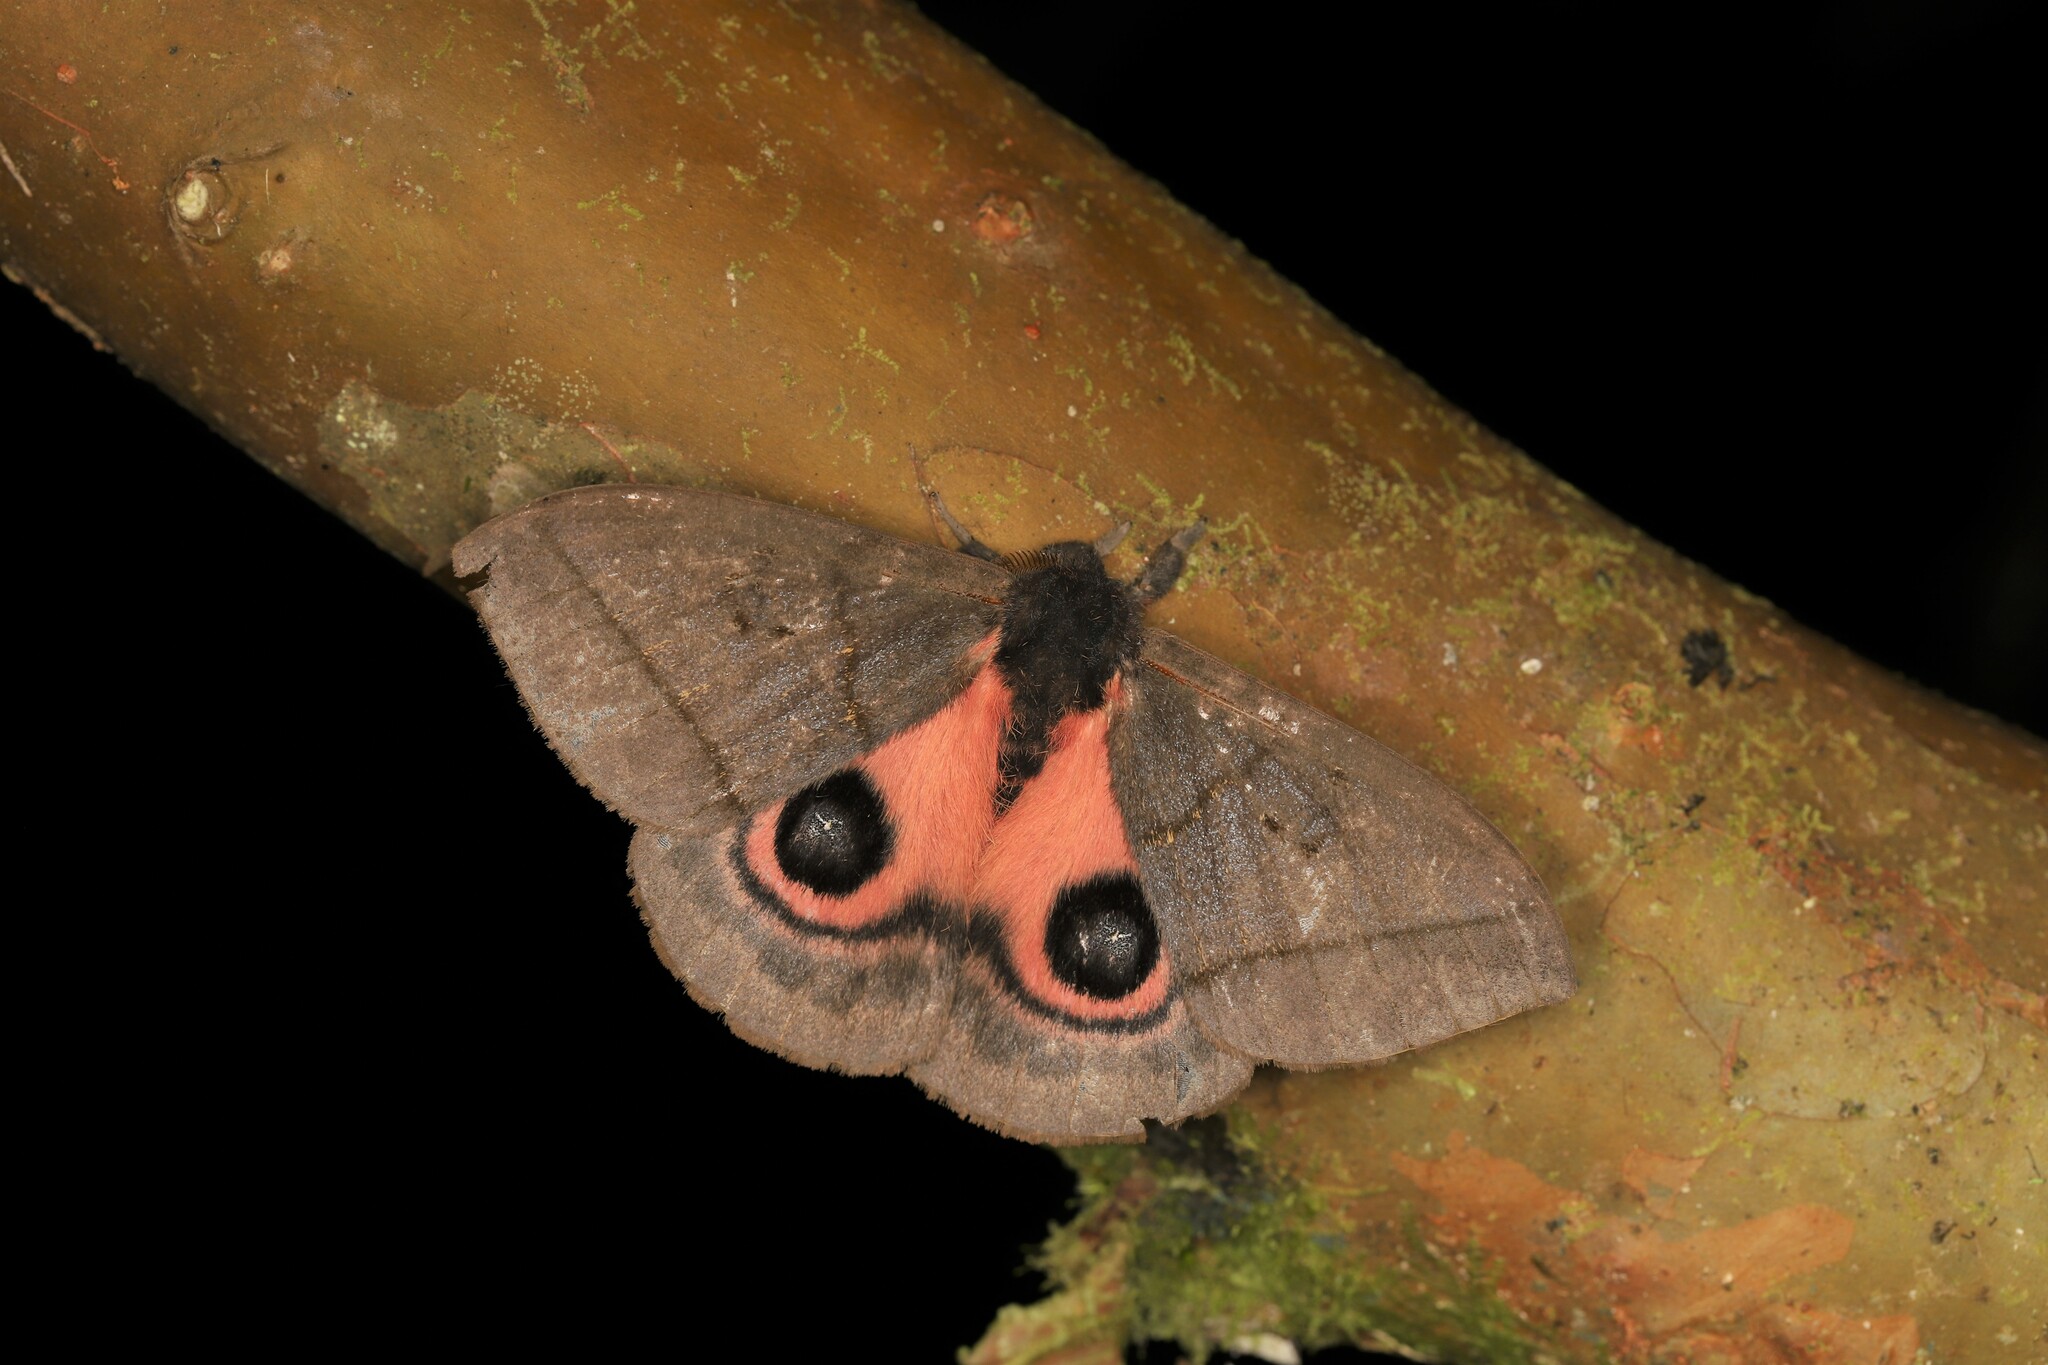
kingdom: Animalia
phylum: Arthropoda
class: Insecta
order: Lepidoptera
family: Saturniidae
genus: Automeris
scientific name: Automeris choco
